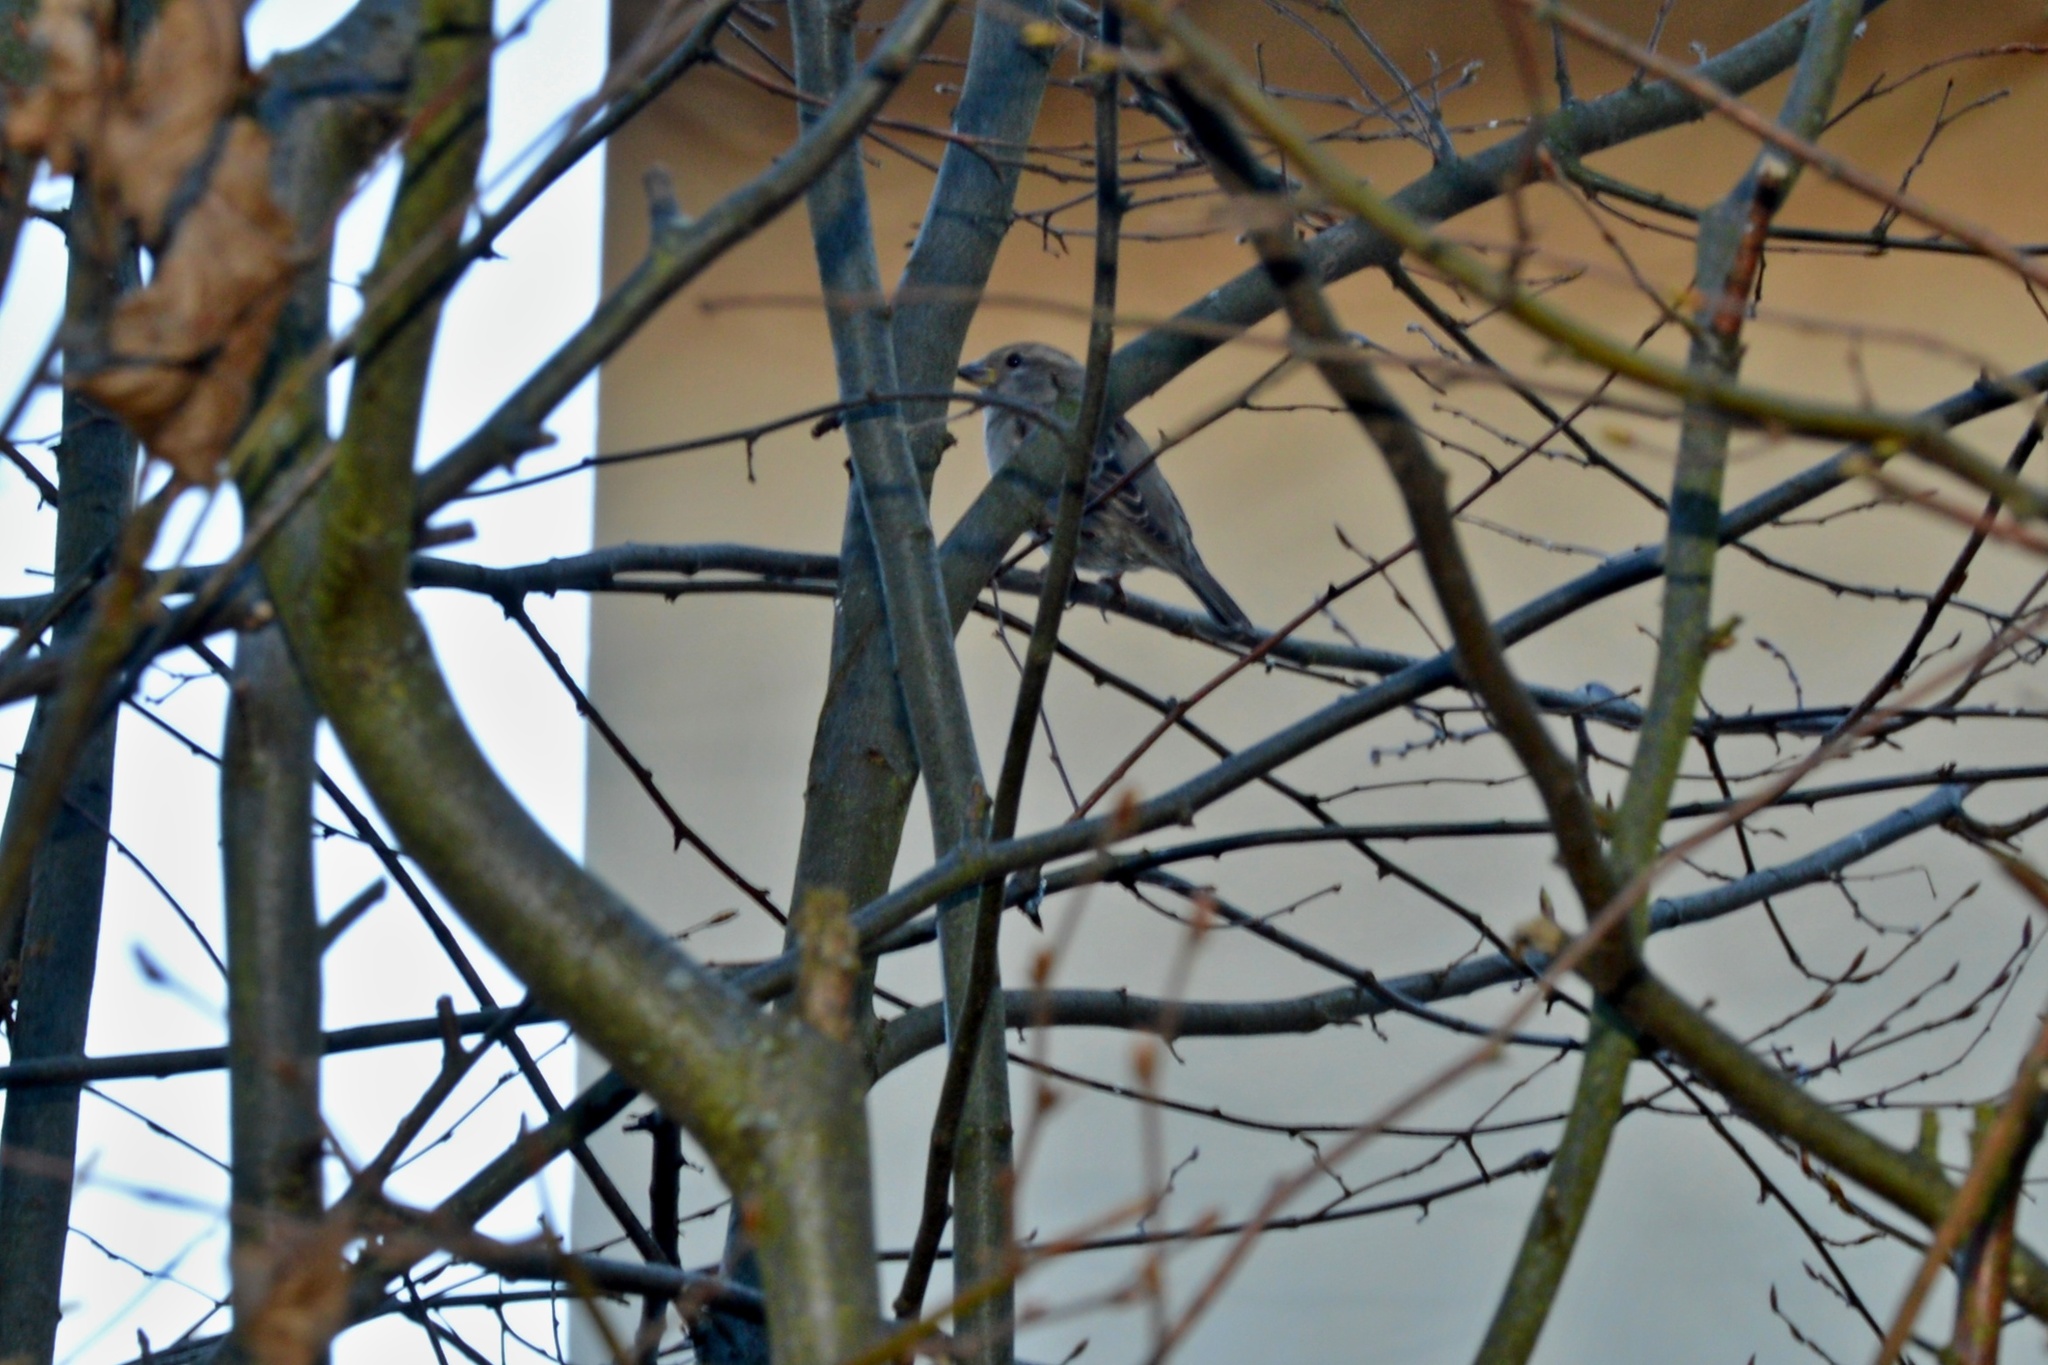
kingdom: Animalia
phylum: Chordata
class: Aves
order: Passeriformes
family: Passeridae
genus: Passer
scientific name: Passer domesticus
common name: House sparrow
